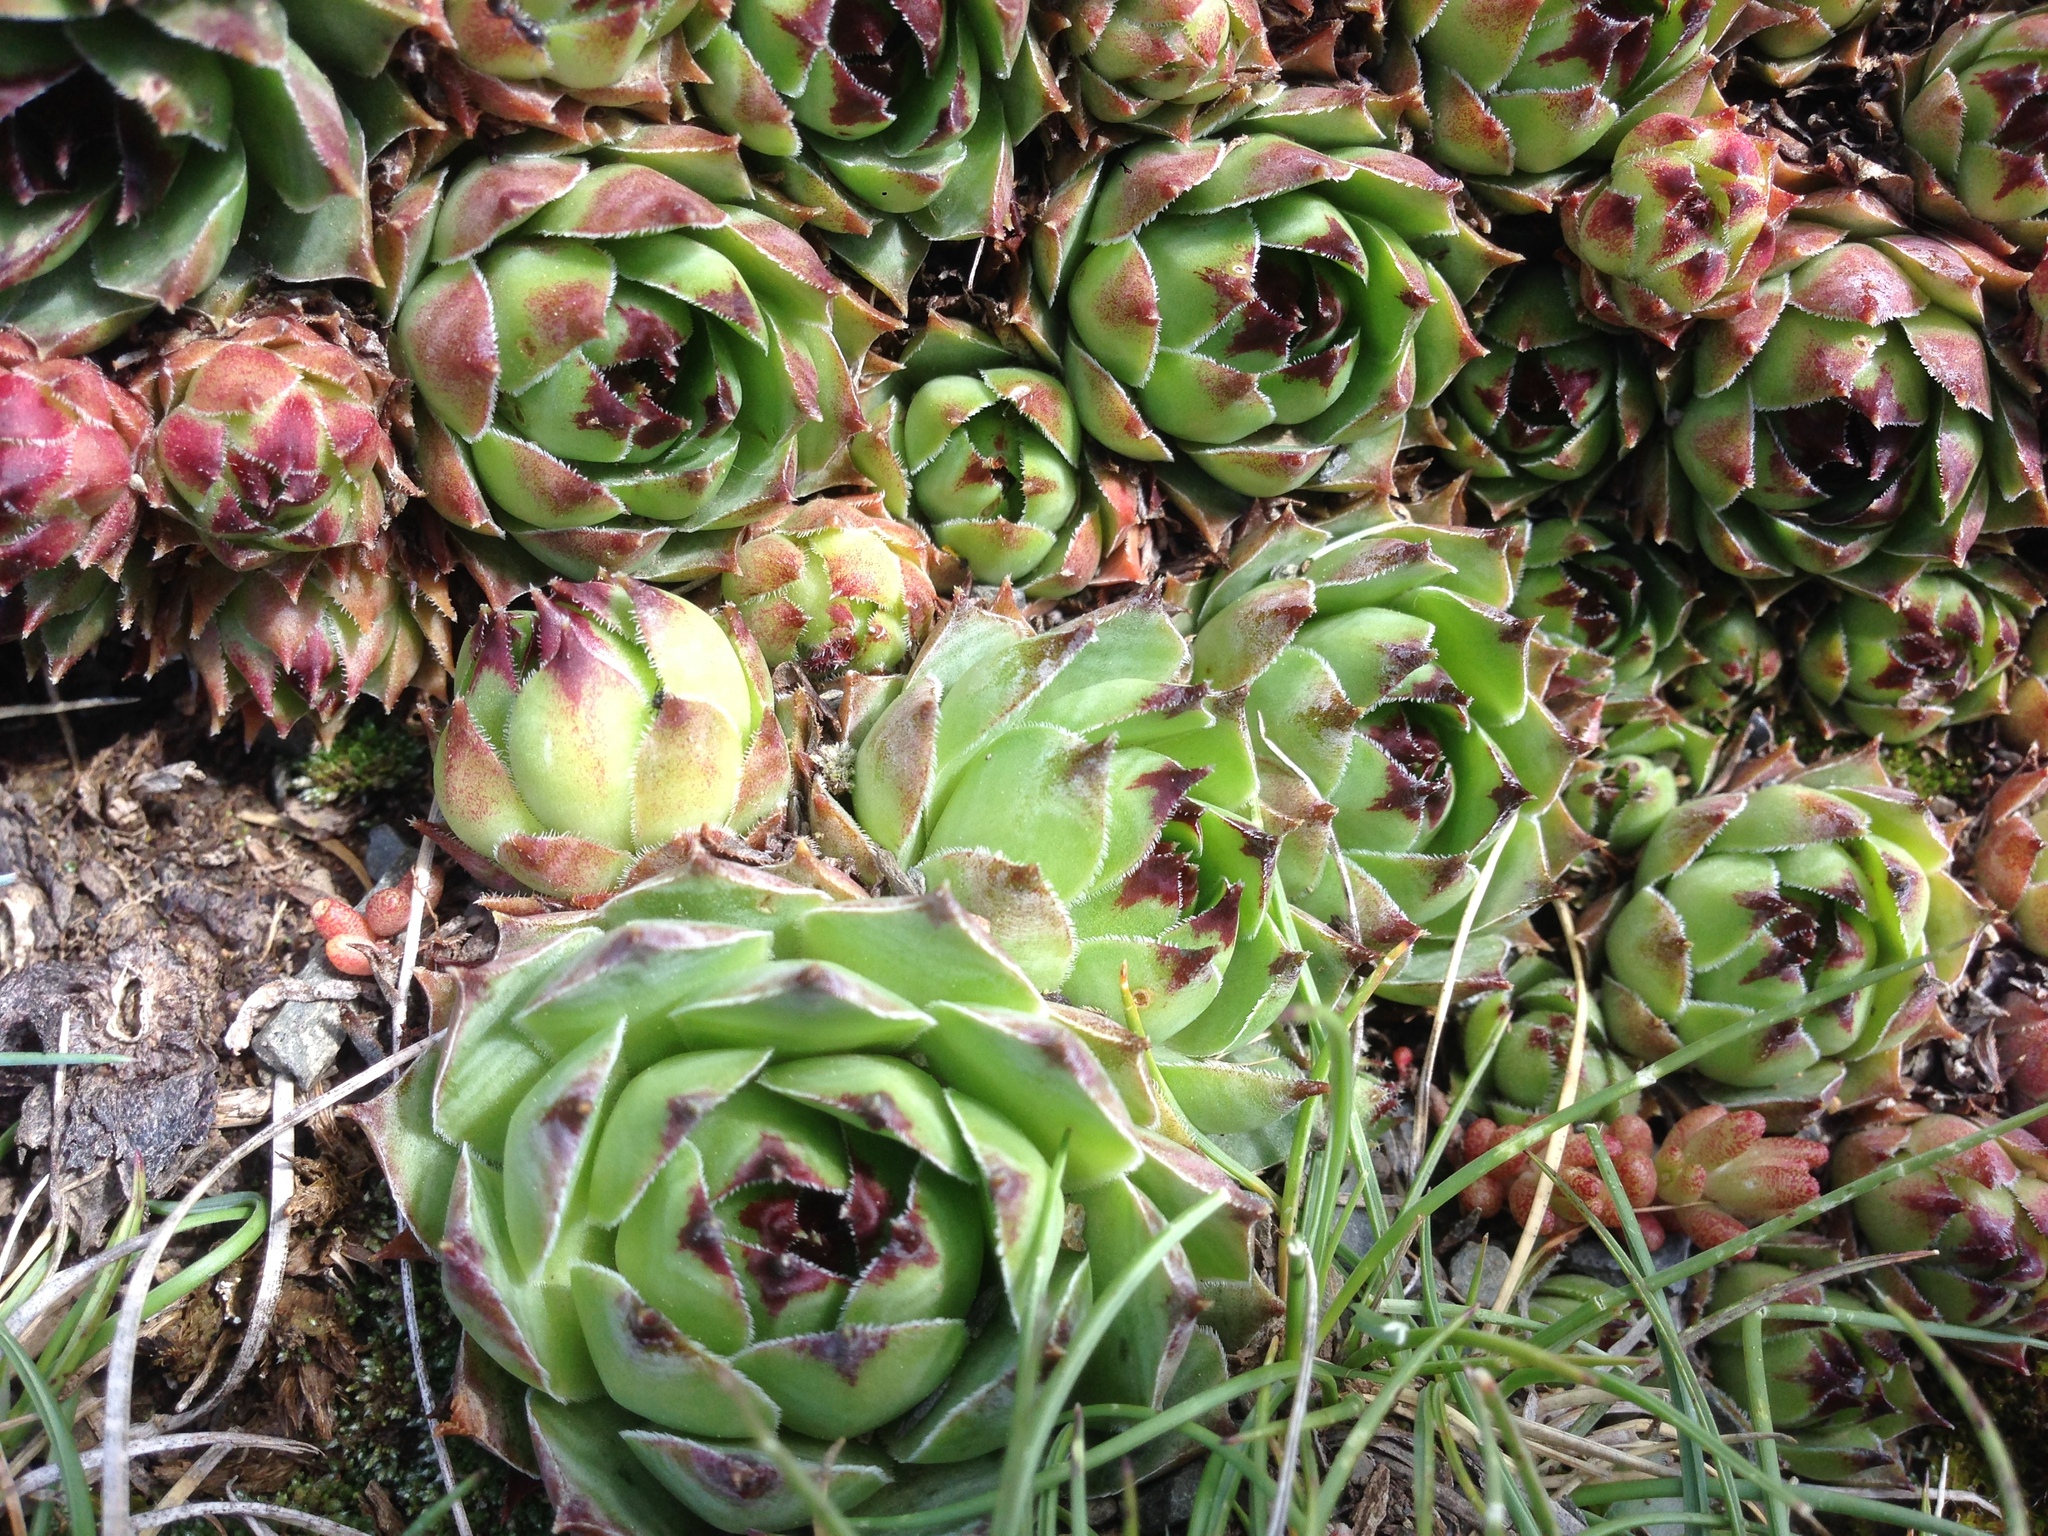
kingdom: Plantae
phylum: Tracheophyta
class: Magnoliopsida
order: Saxifragales
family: Crassulaceae
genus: Sempervivum
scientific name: Sempervivum tectorum
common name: House-leek
